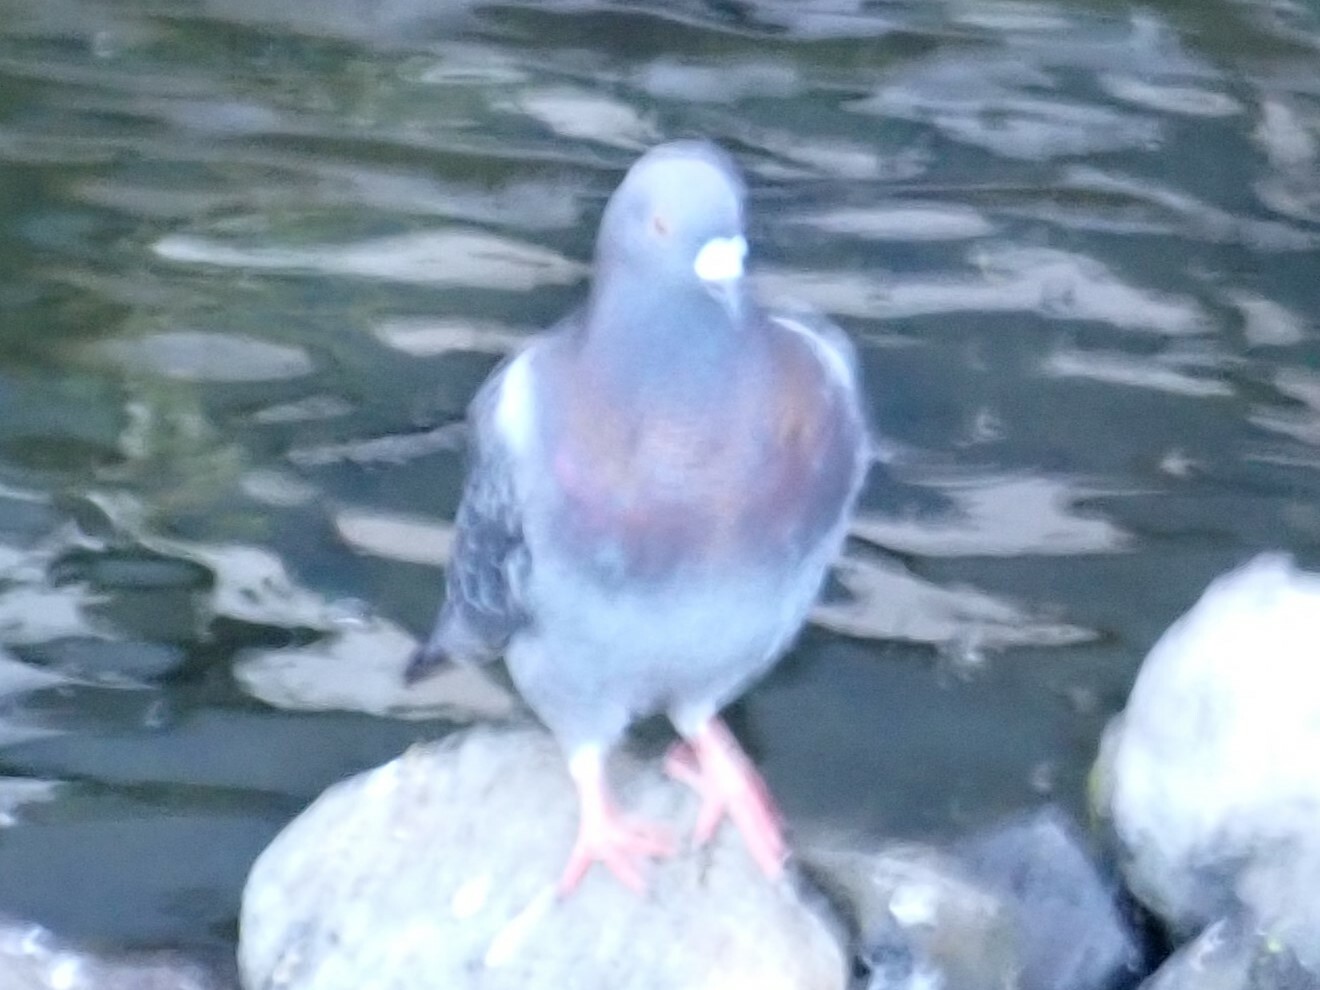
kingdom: Animalia
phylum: Chordata
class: Aves
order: Columbiformes
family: Columbidae
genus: Columba
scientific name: Columba livia
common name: Rock pigeon
